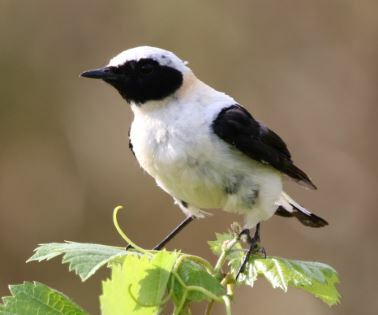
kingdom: Animalia
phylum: Chordata
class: Aves
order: Passeriformes
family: Muscicapidae
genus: Oenanthe
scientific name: Oenanthe hispanica
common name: Black-eared wheatear
